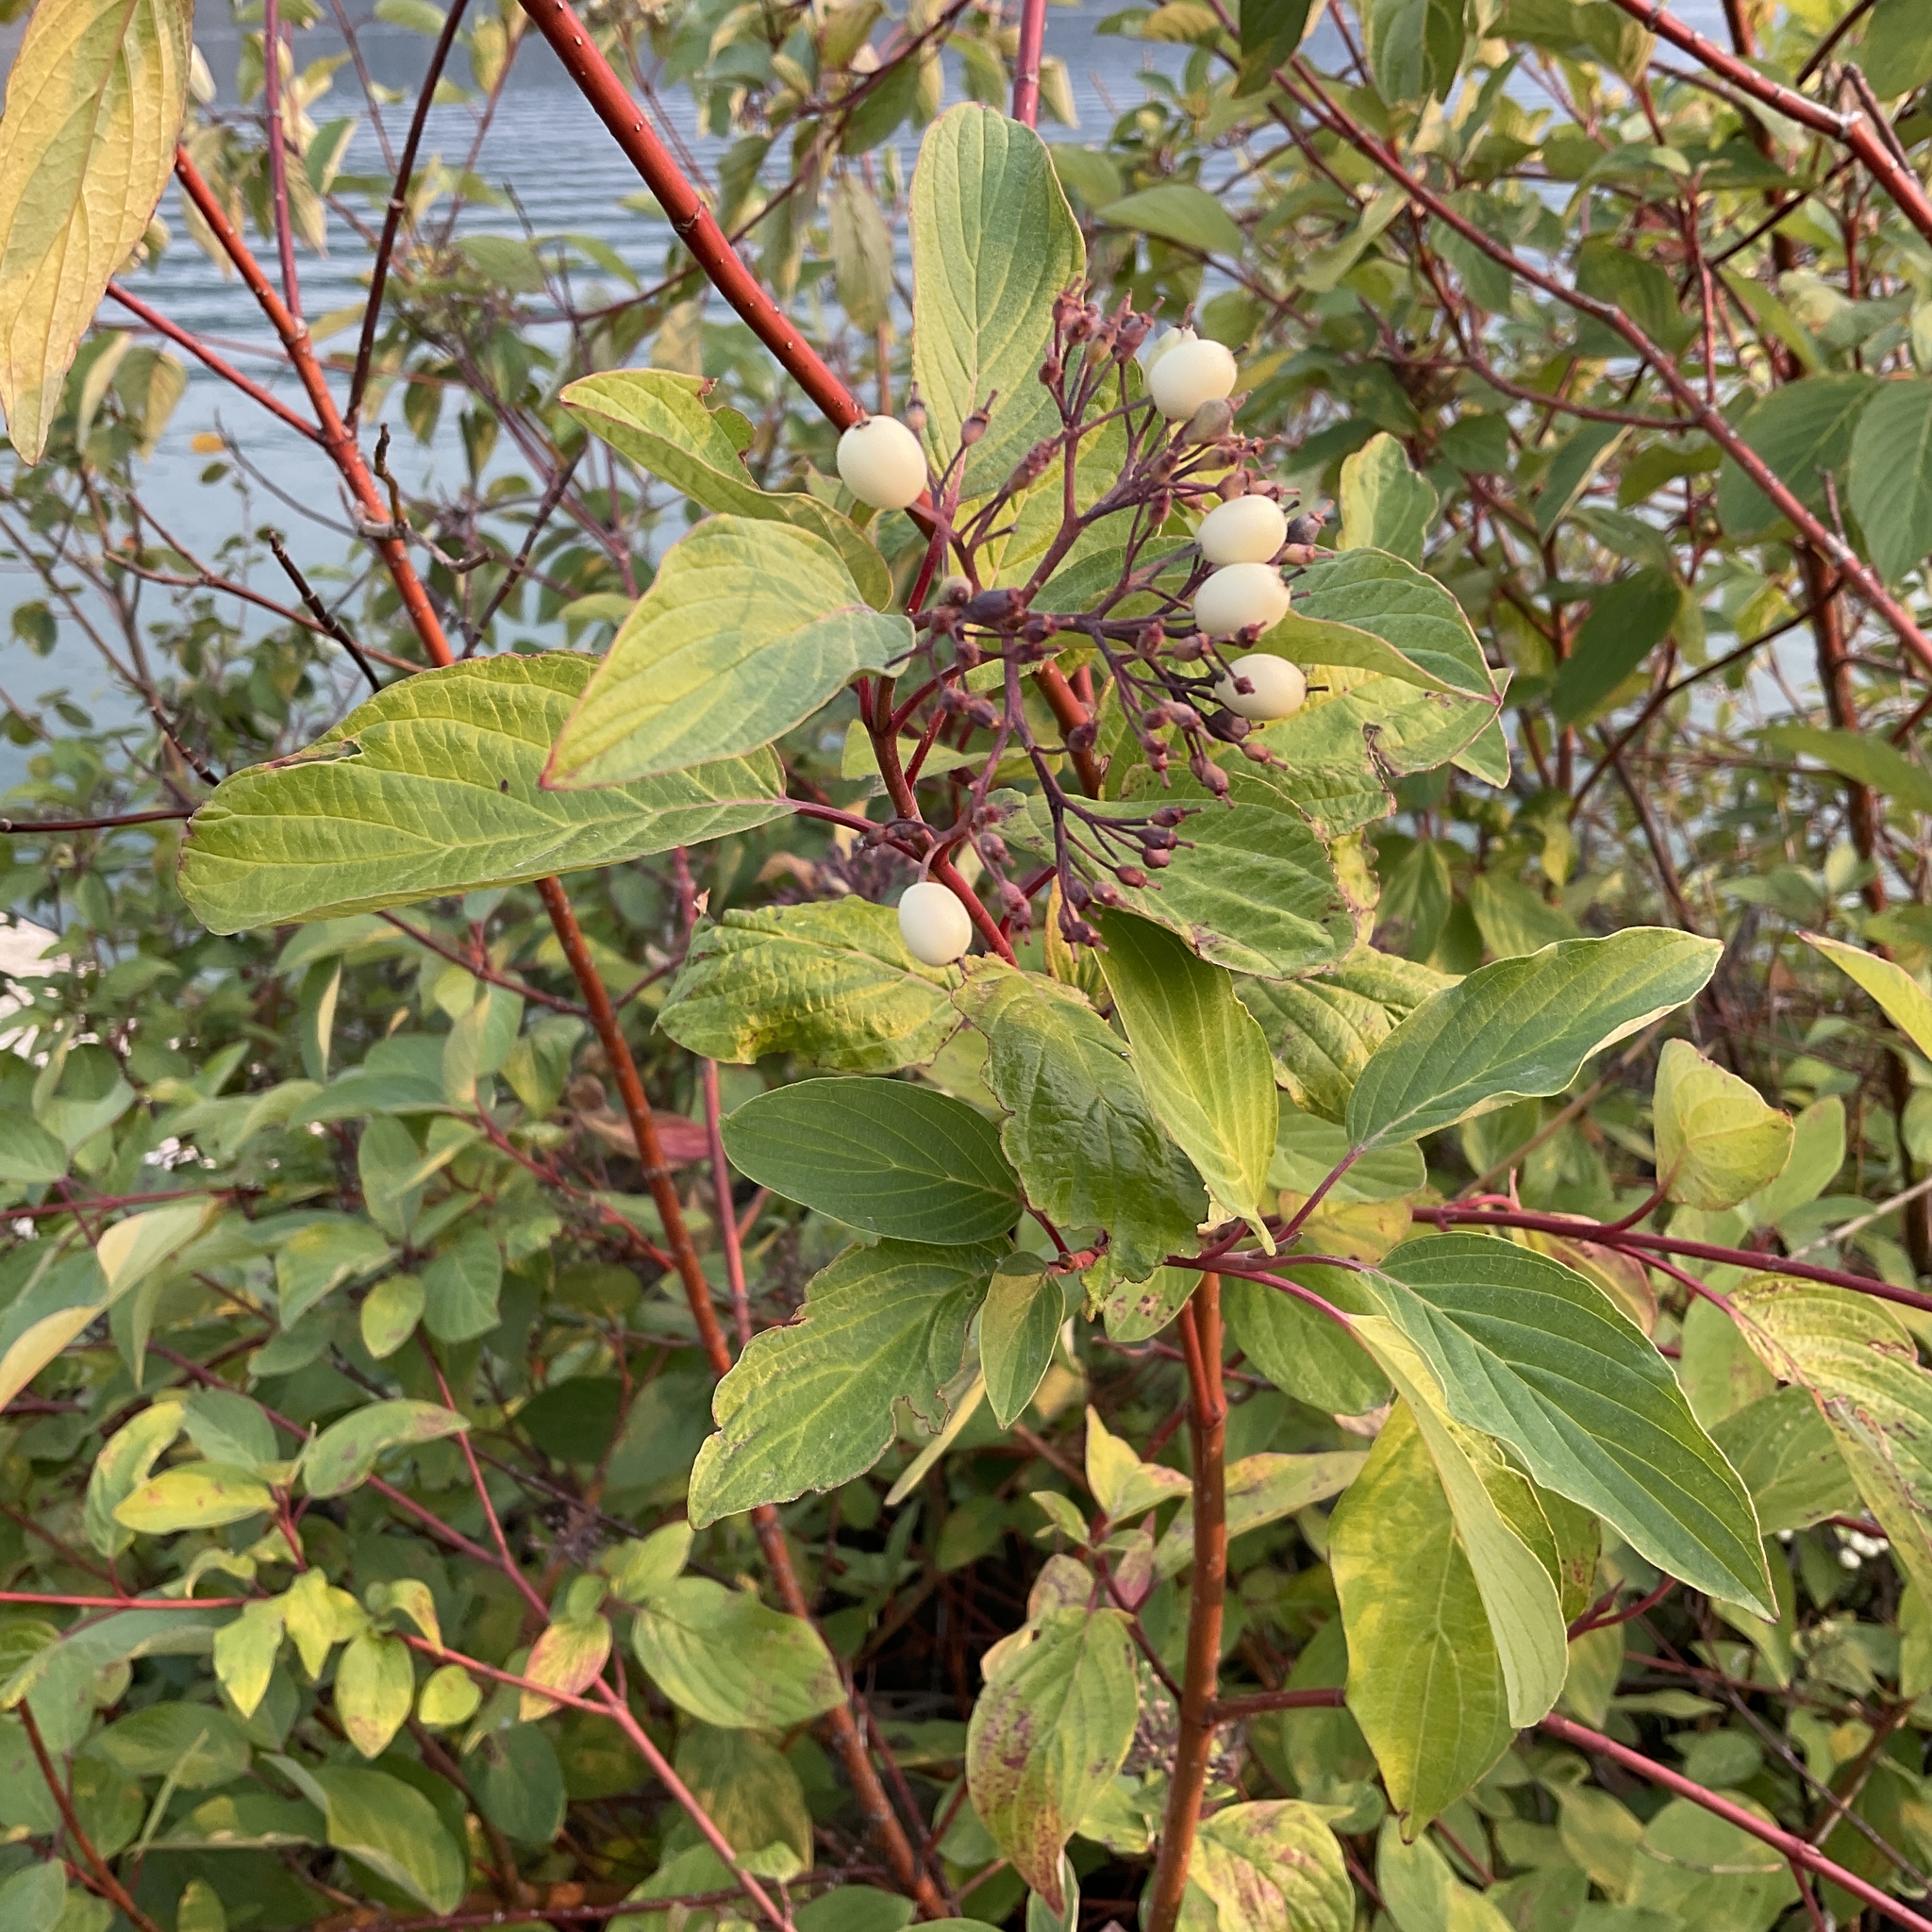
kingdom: Plantae
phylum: Tracheophyta
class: Magnoliopsida
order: Cornales
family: Cornaceae
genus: Cornus
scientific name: Cornus sericea
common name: Red-osier dogwood
